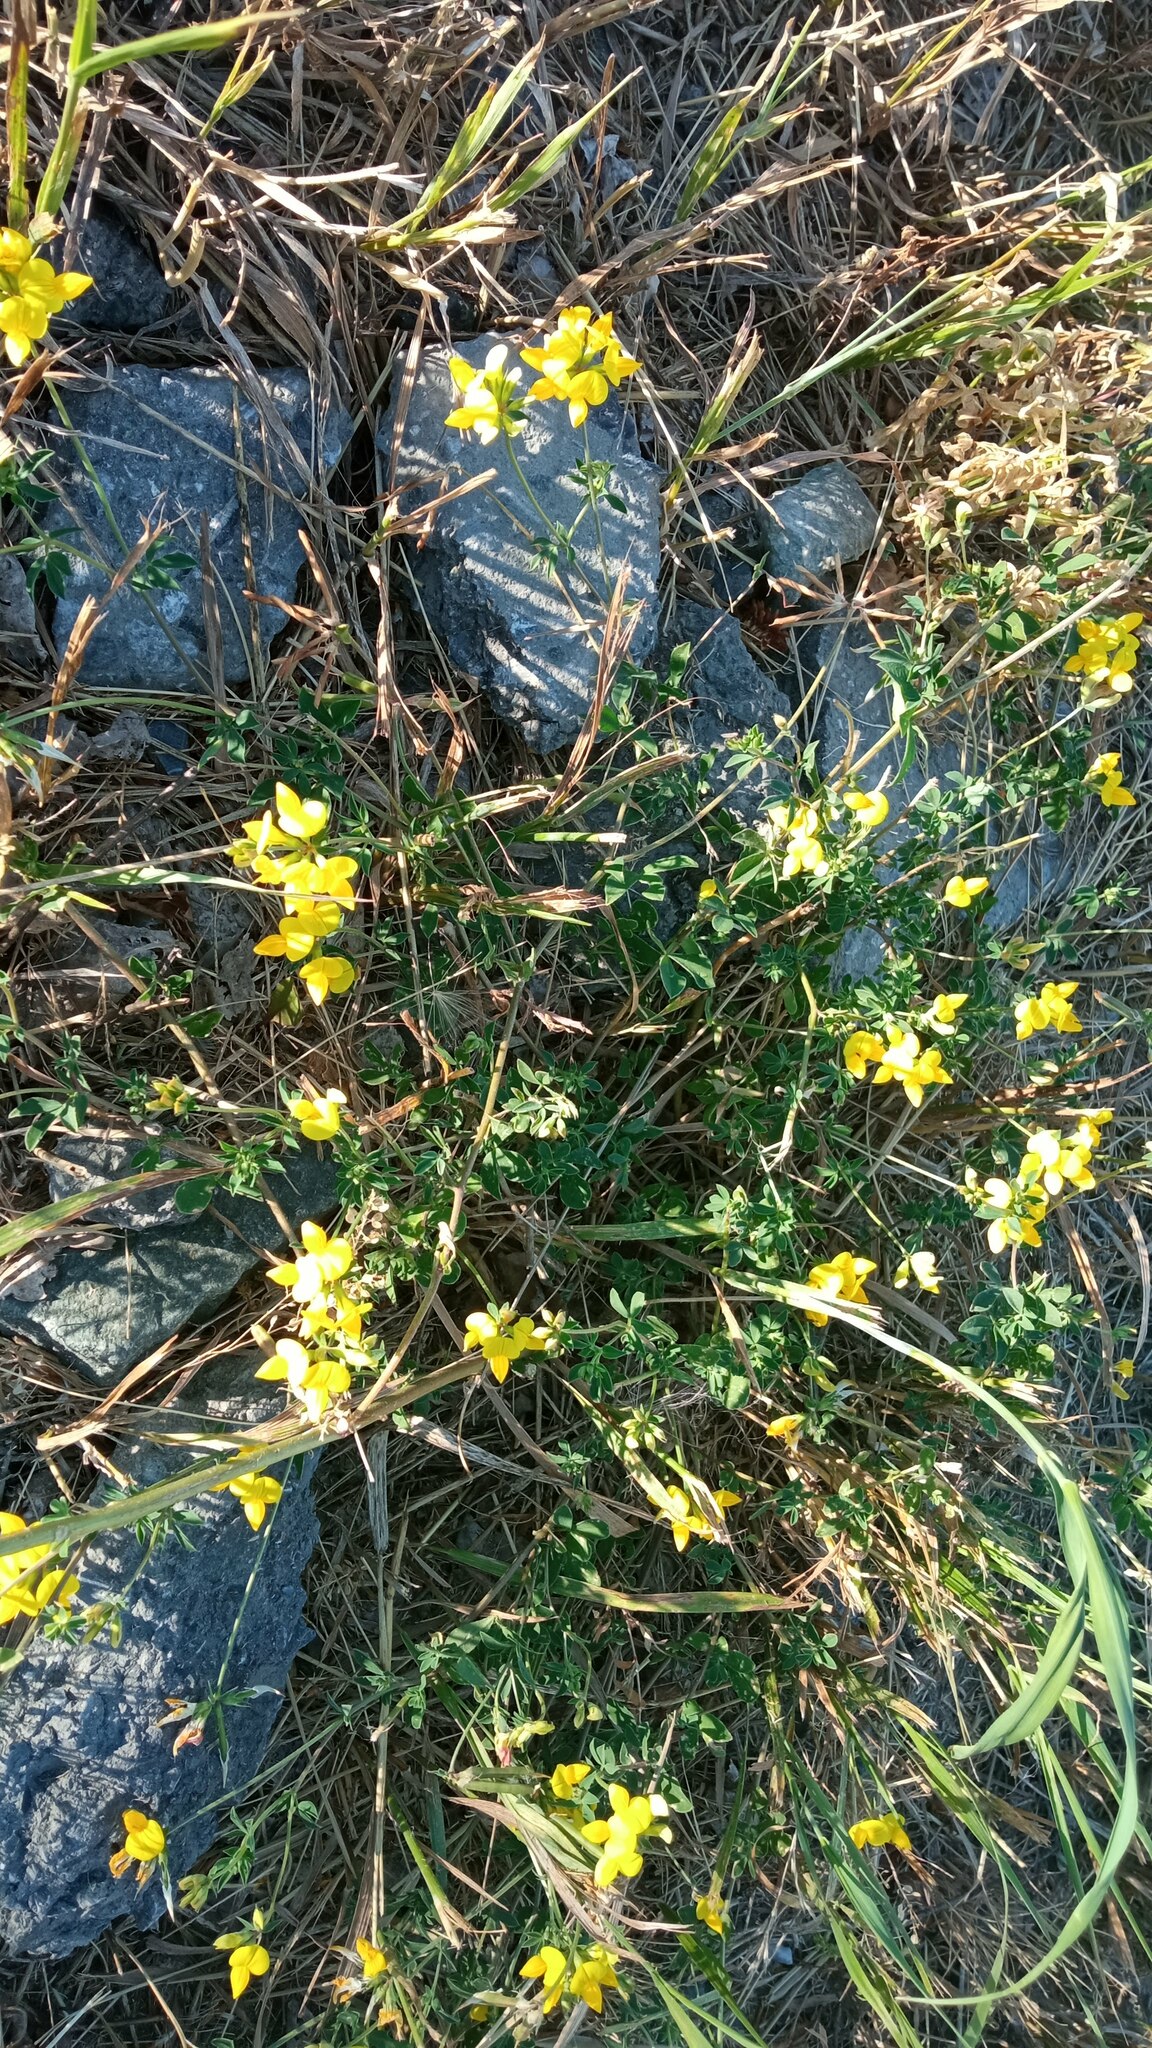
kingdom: Plantae
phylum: Tracheophyta
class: Magnoliopsida
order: Fabales
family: Fabaceae
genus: Lotus
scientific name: Lotus corniculatus
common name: Common bird's-foot-trefoil
